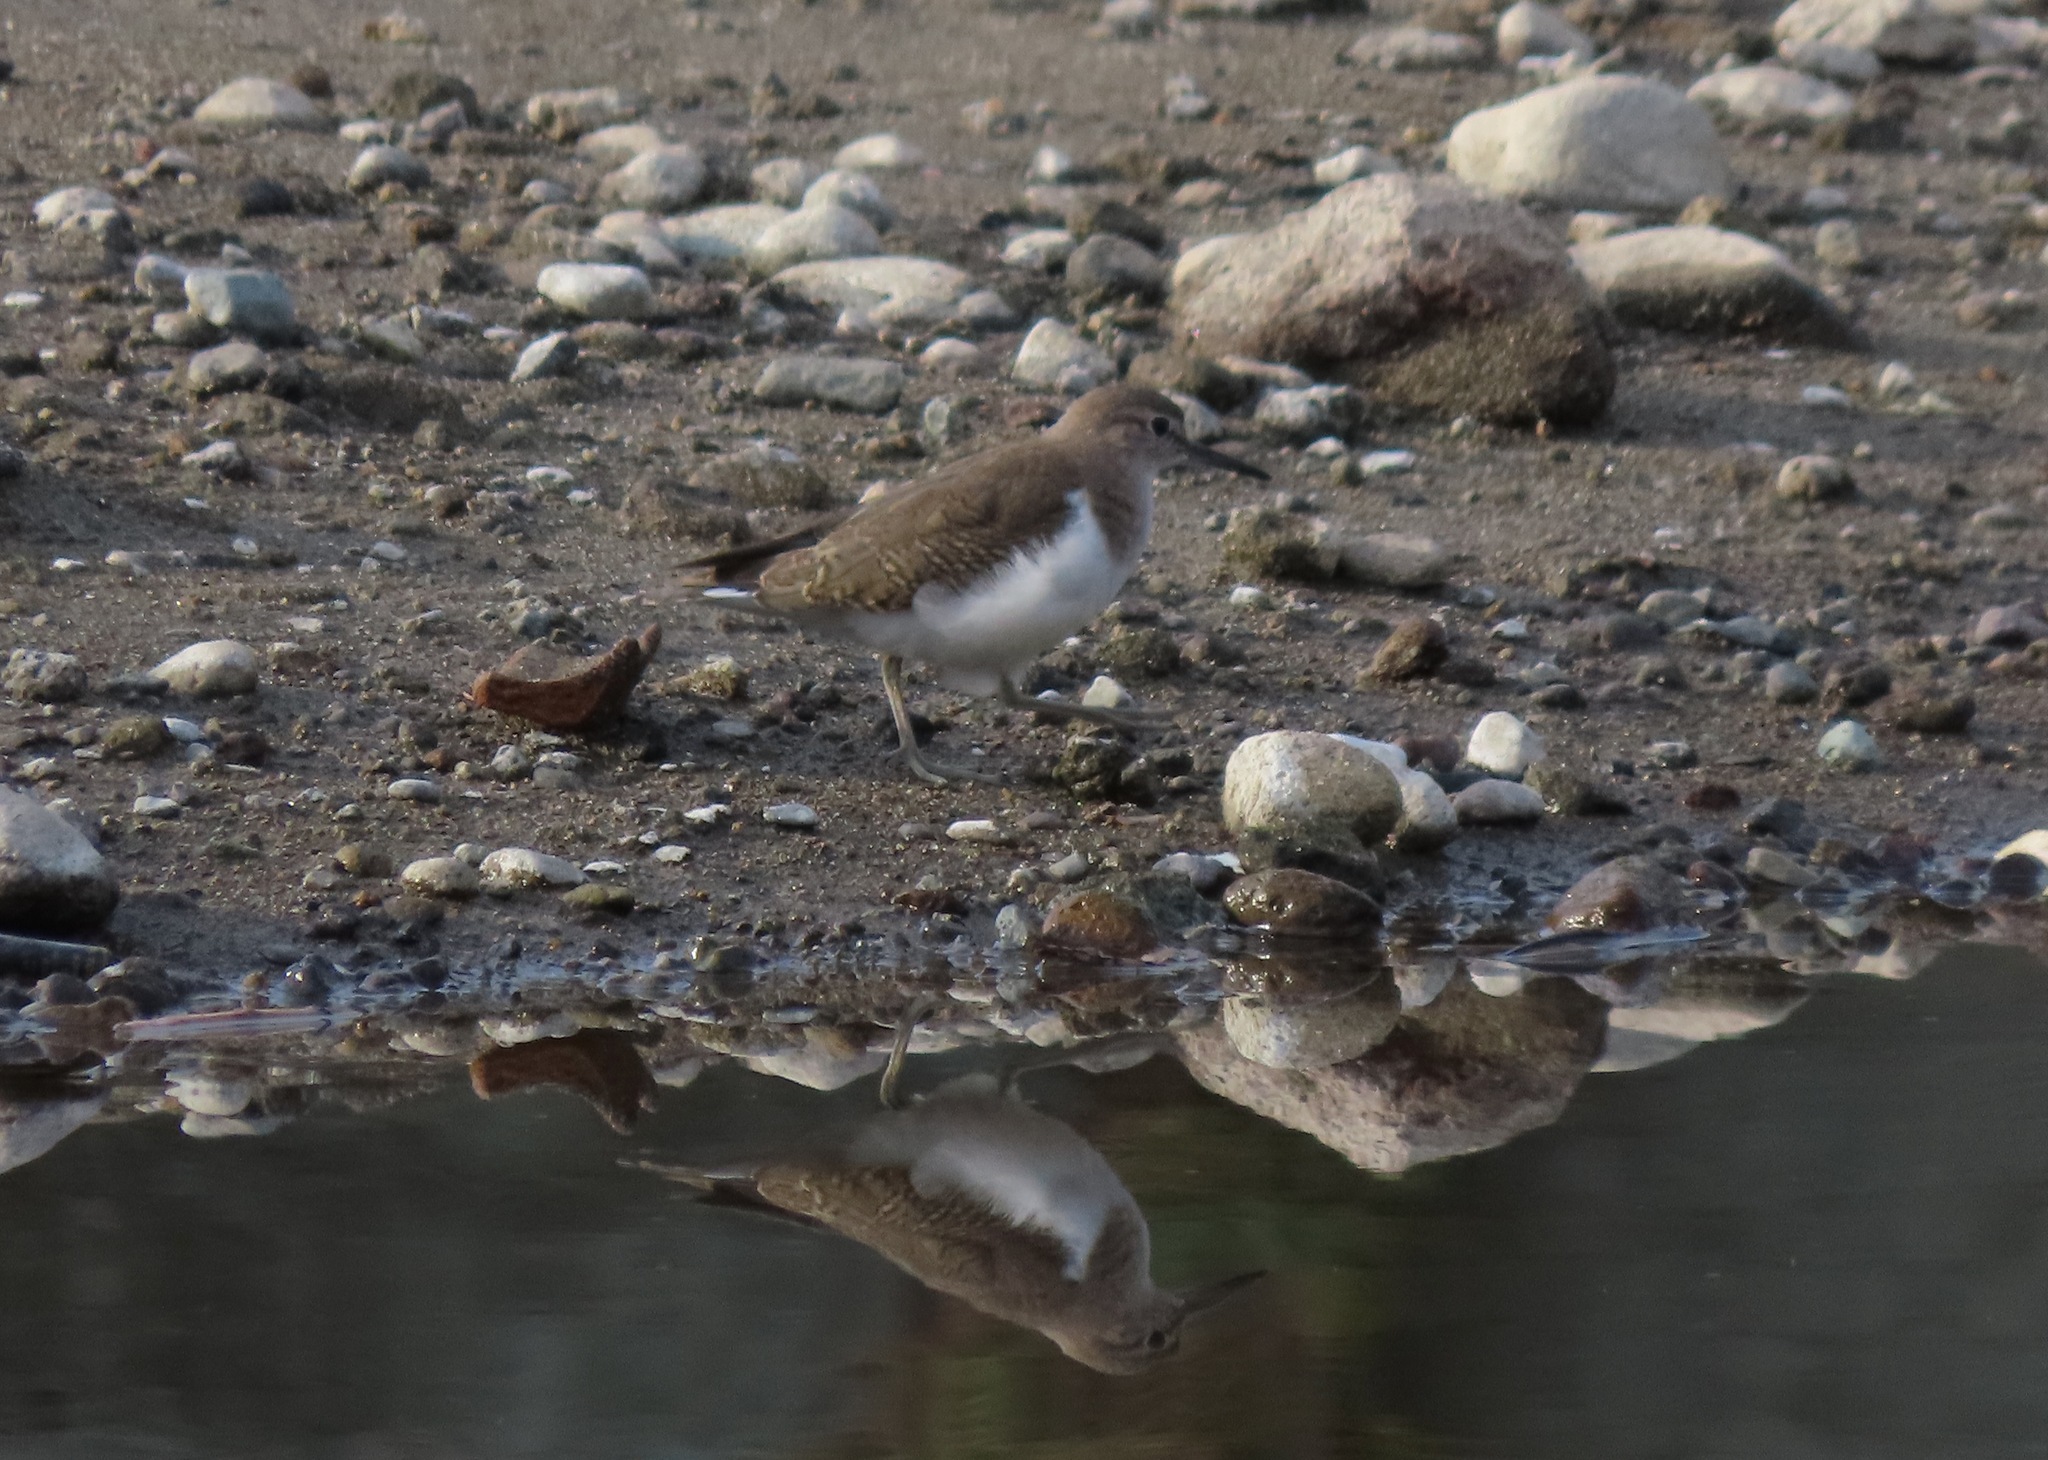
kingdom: Animalia
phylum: Chordata
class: Aves
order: Charadriiformes
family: Scolopacidae
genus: Actitis
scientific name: Actitis hypoleucos
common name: Common sandpiper
